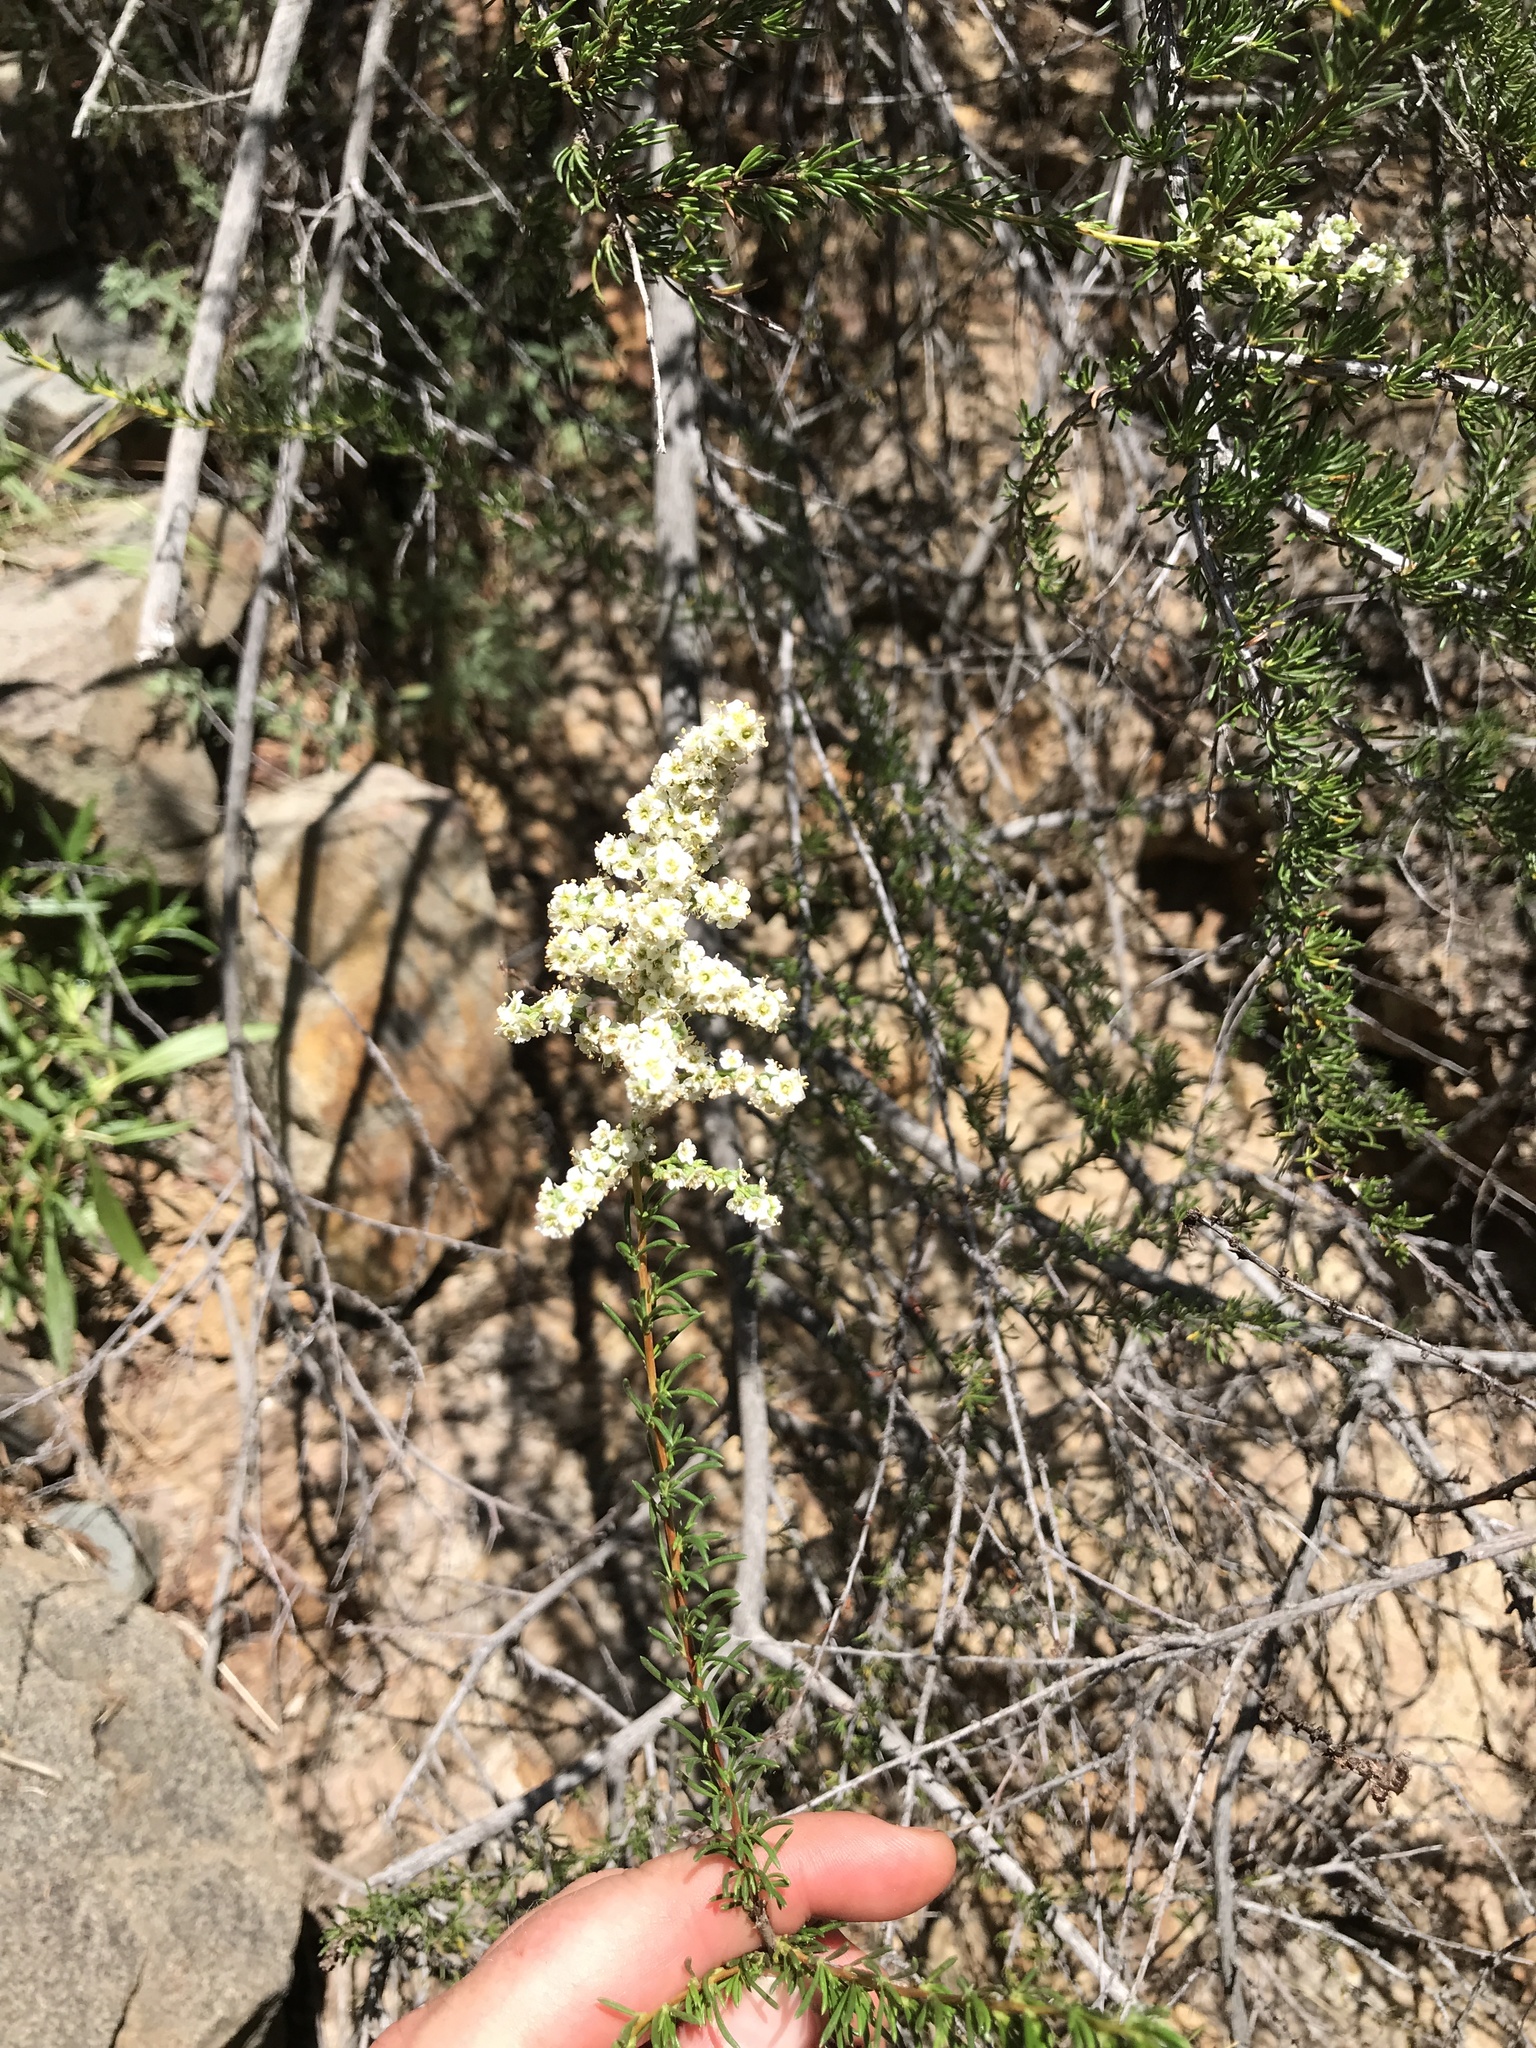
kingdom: Plantae
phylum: Tracheophyta
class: Magnoliopsida
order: Rosales
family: Rosaceae
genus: Adenostoma
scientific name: Adenostoma fasciculatum
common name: Chamise
